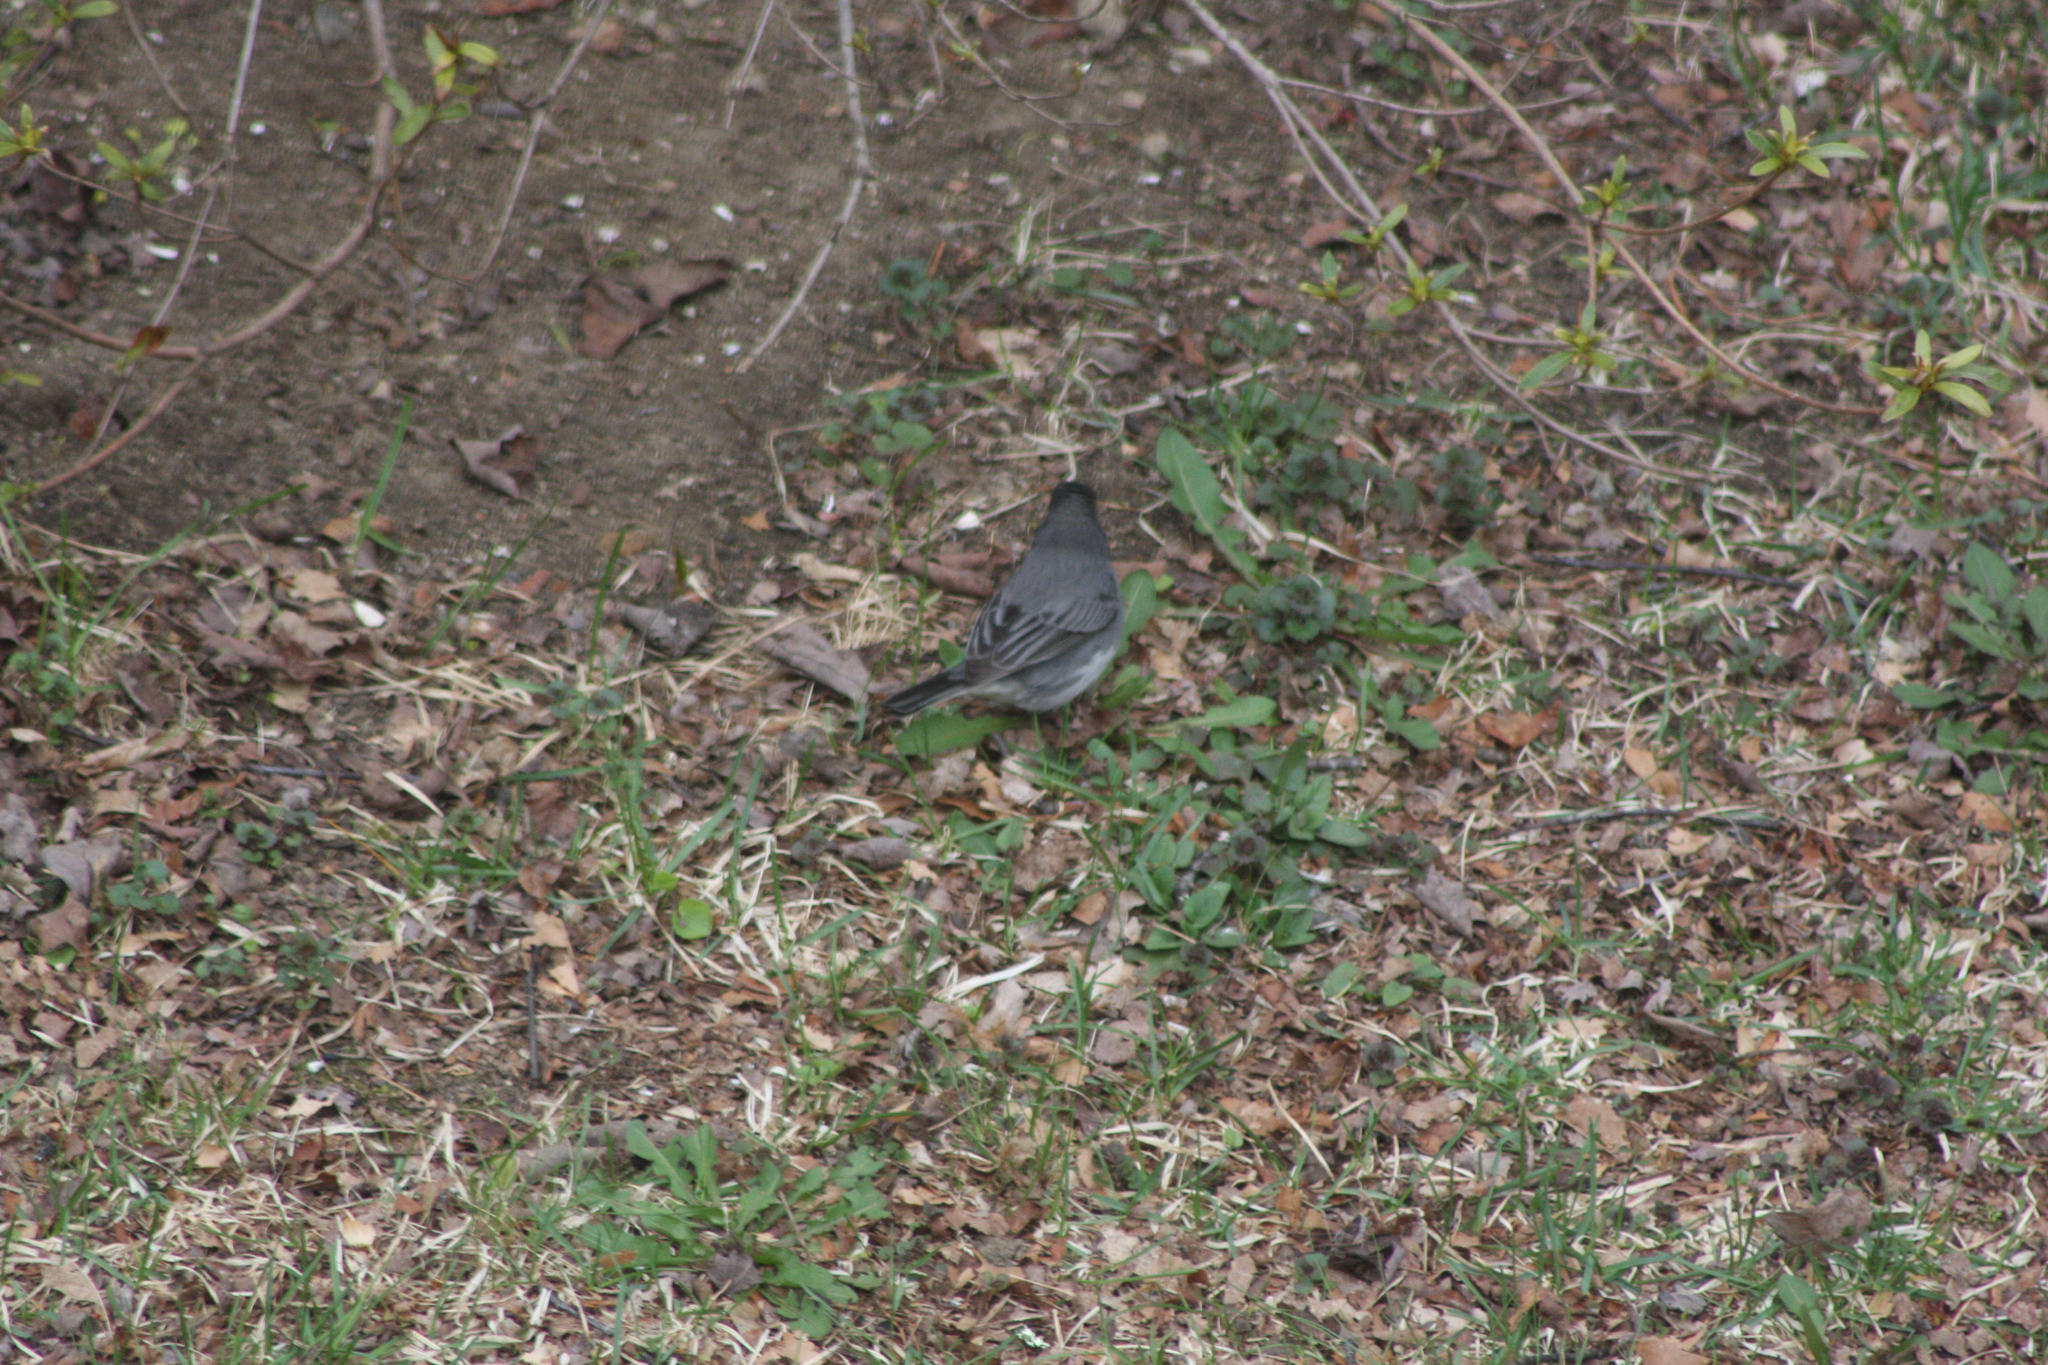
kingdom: Animalia
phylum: Chordata
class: Aves
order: Passeriformes
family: Passerellidae
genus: Junco
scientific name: Junco hyemalis
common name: Dark-eyed junco
